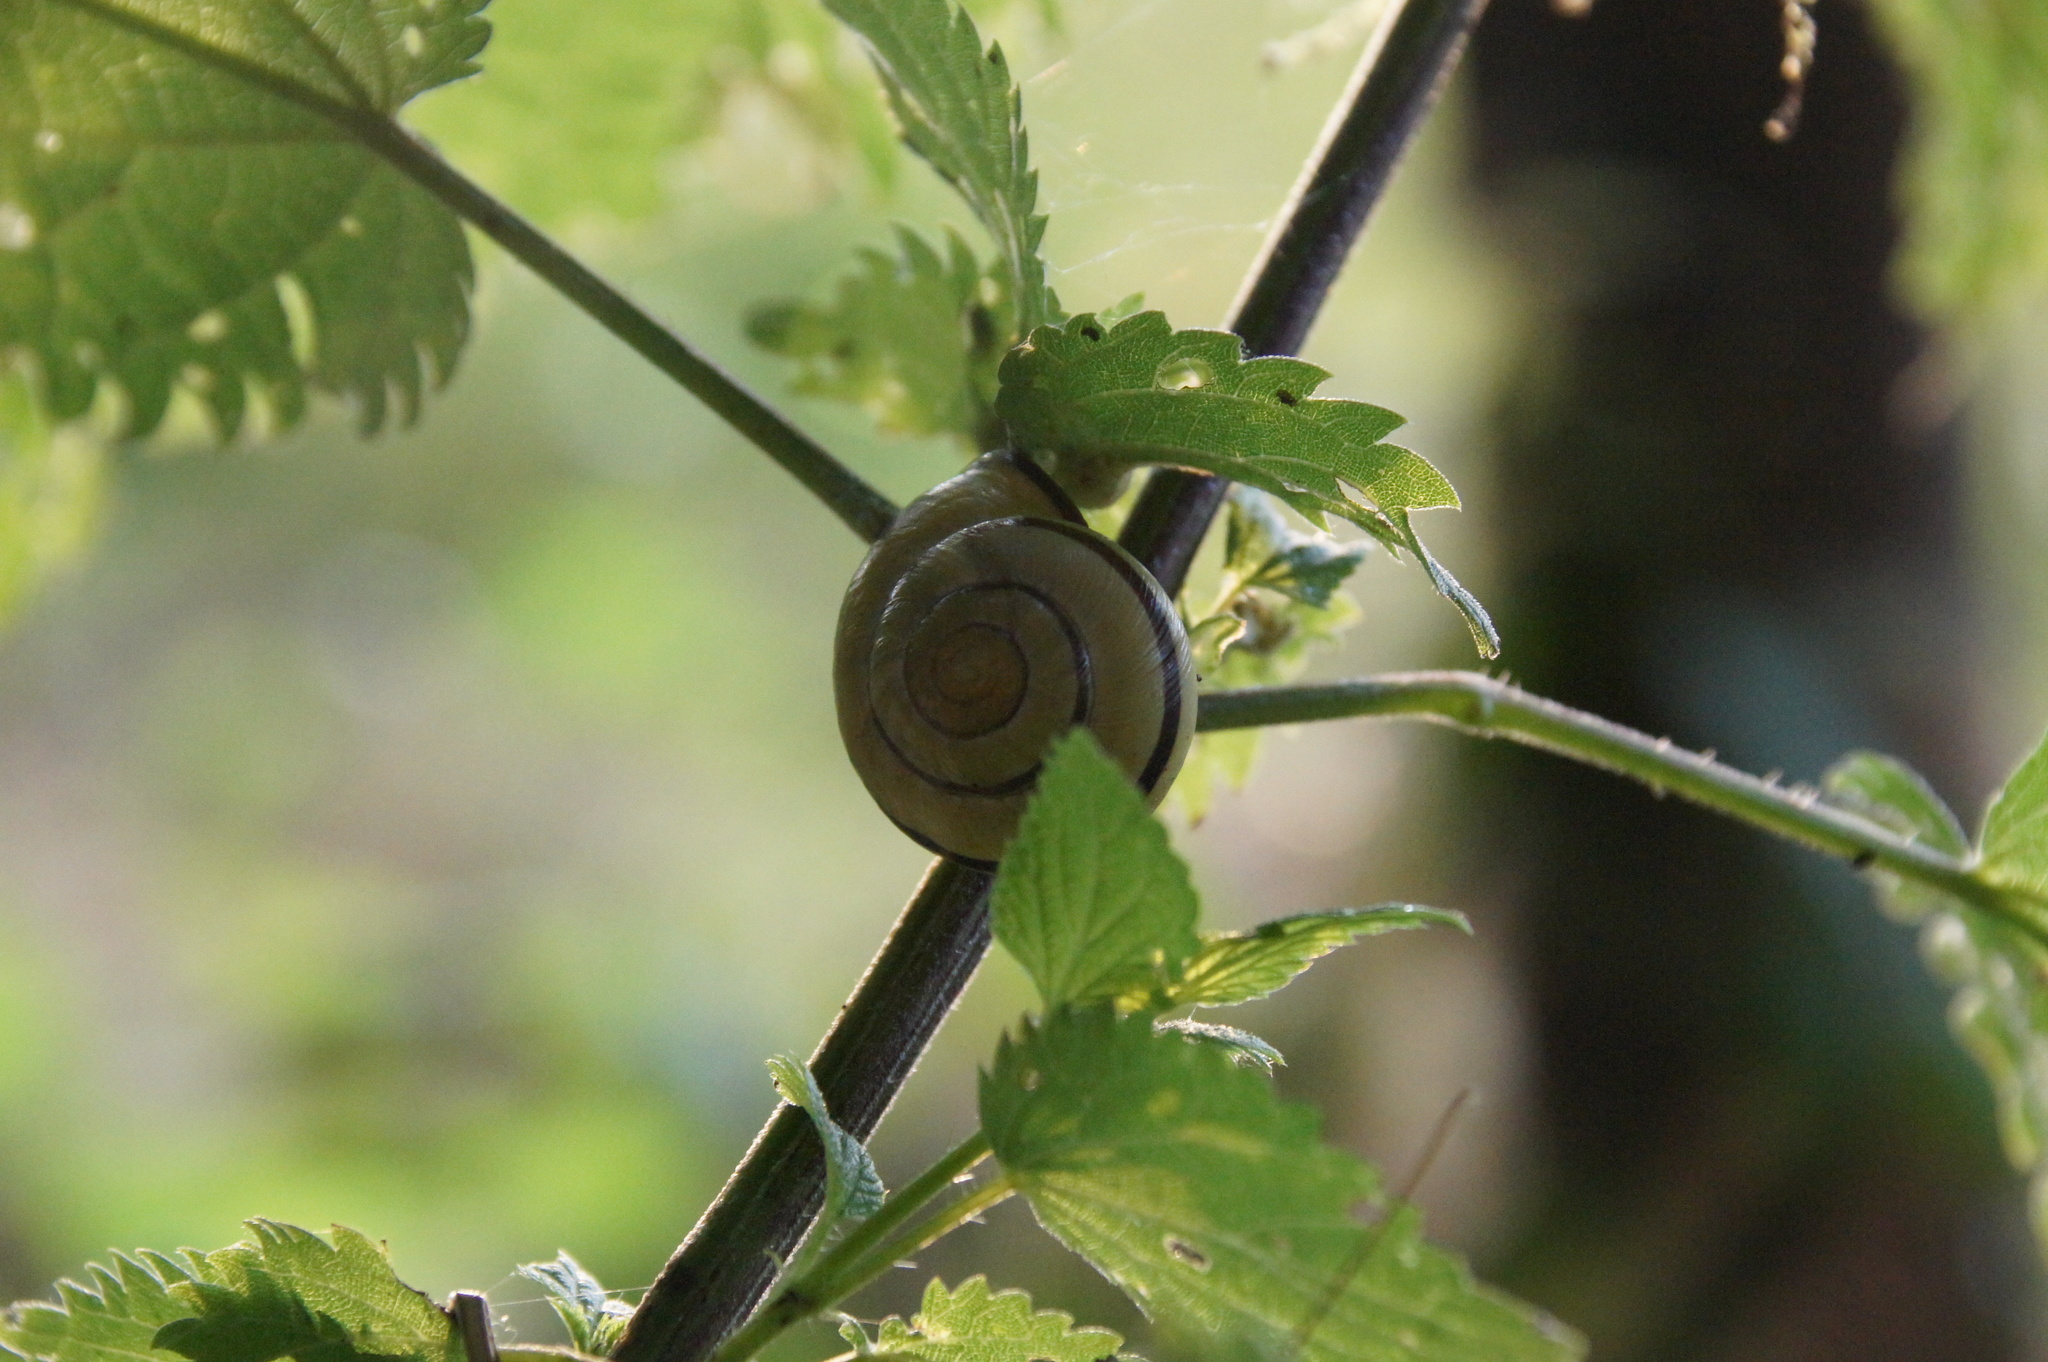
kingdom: Animalia
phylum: Mollusca
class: Gastropoda
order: Stylommatophora
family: Helicidae
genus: Cepaea
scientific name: Cepaea nemoralis
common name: Grovesnail
